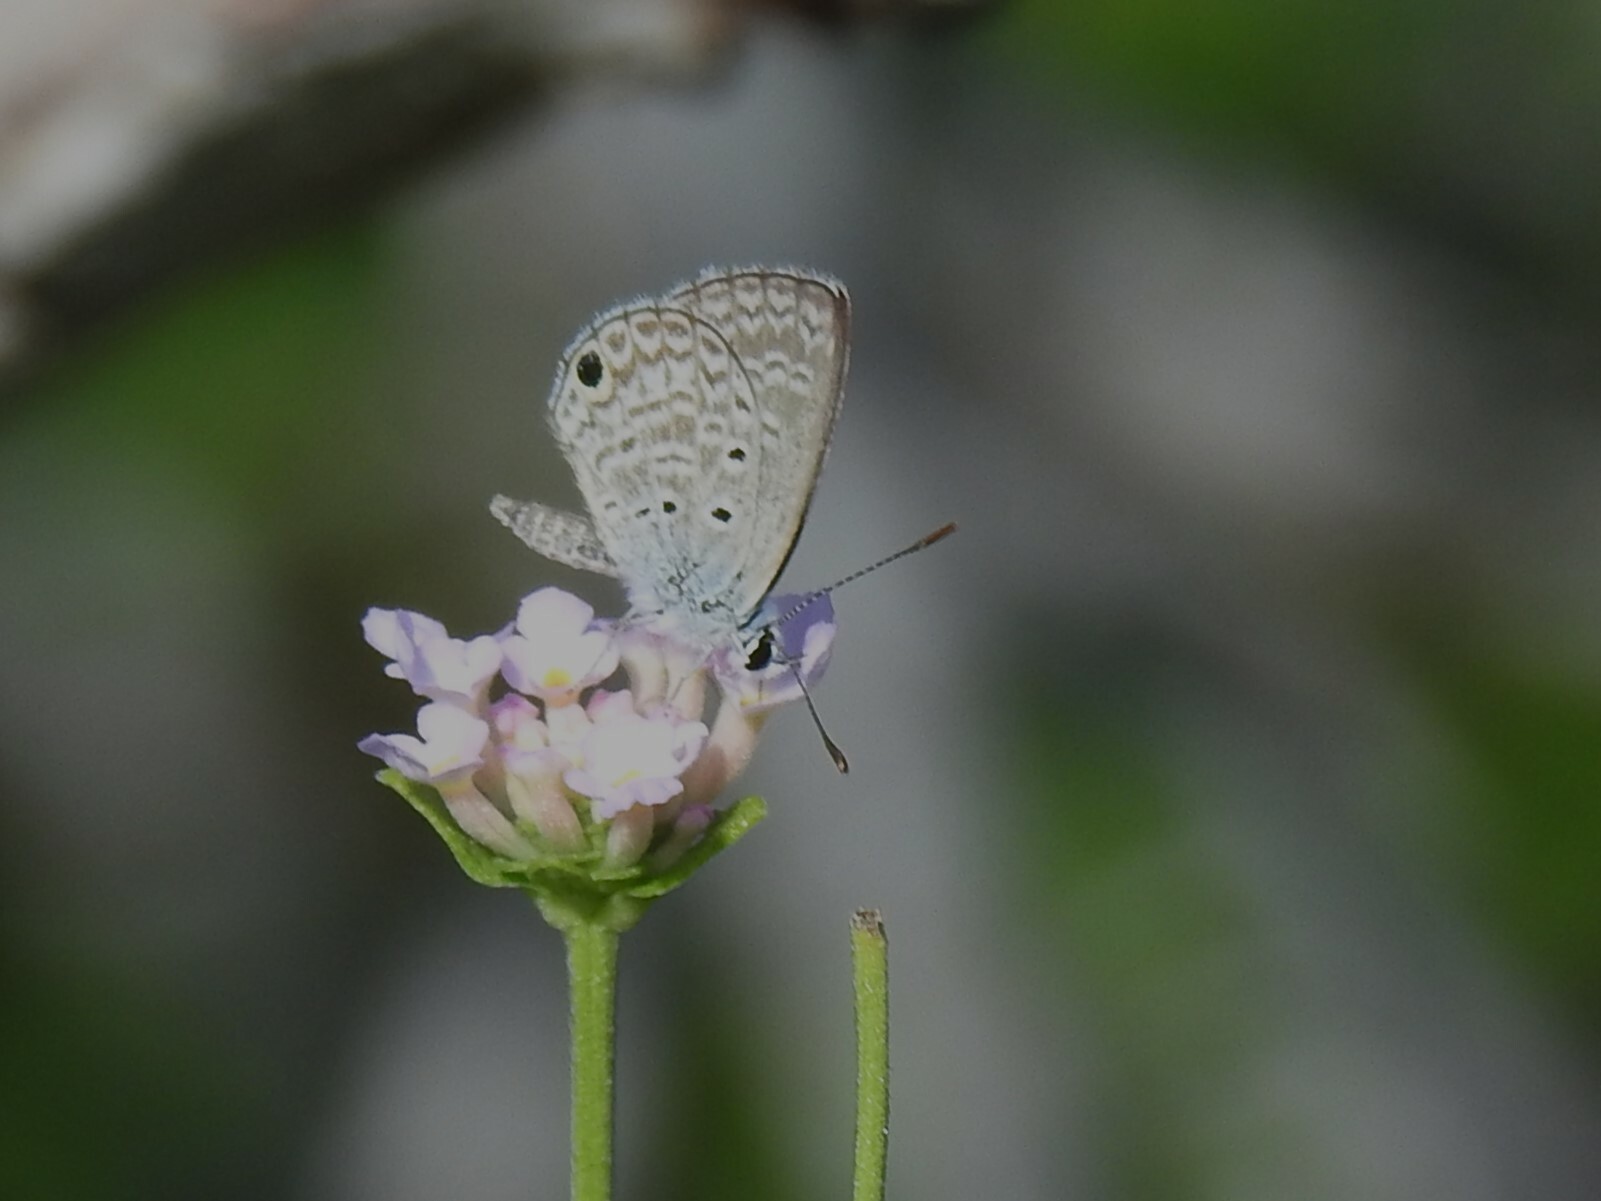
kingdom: Animalia
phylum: Arthropoda
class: Insecta
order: Lepidoptera
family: Lycaenidae
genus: Hemiargus
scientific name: Hemiargus hanno
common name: Common blue
